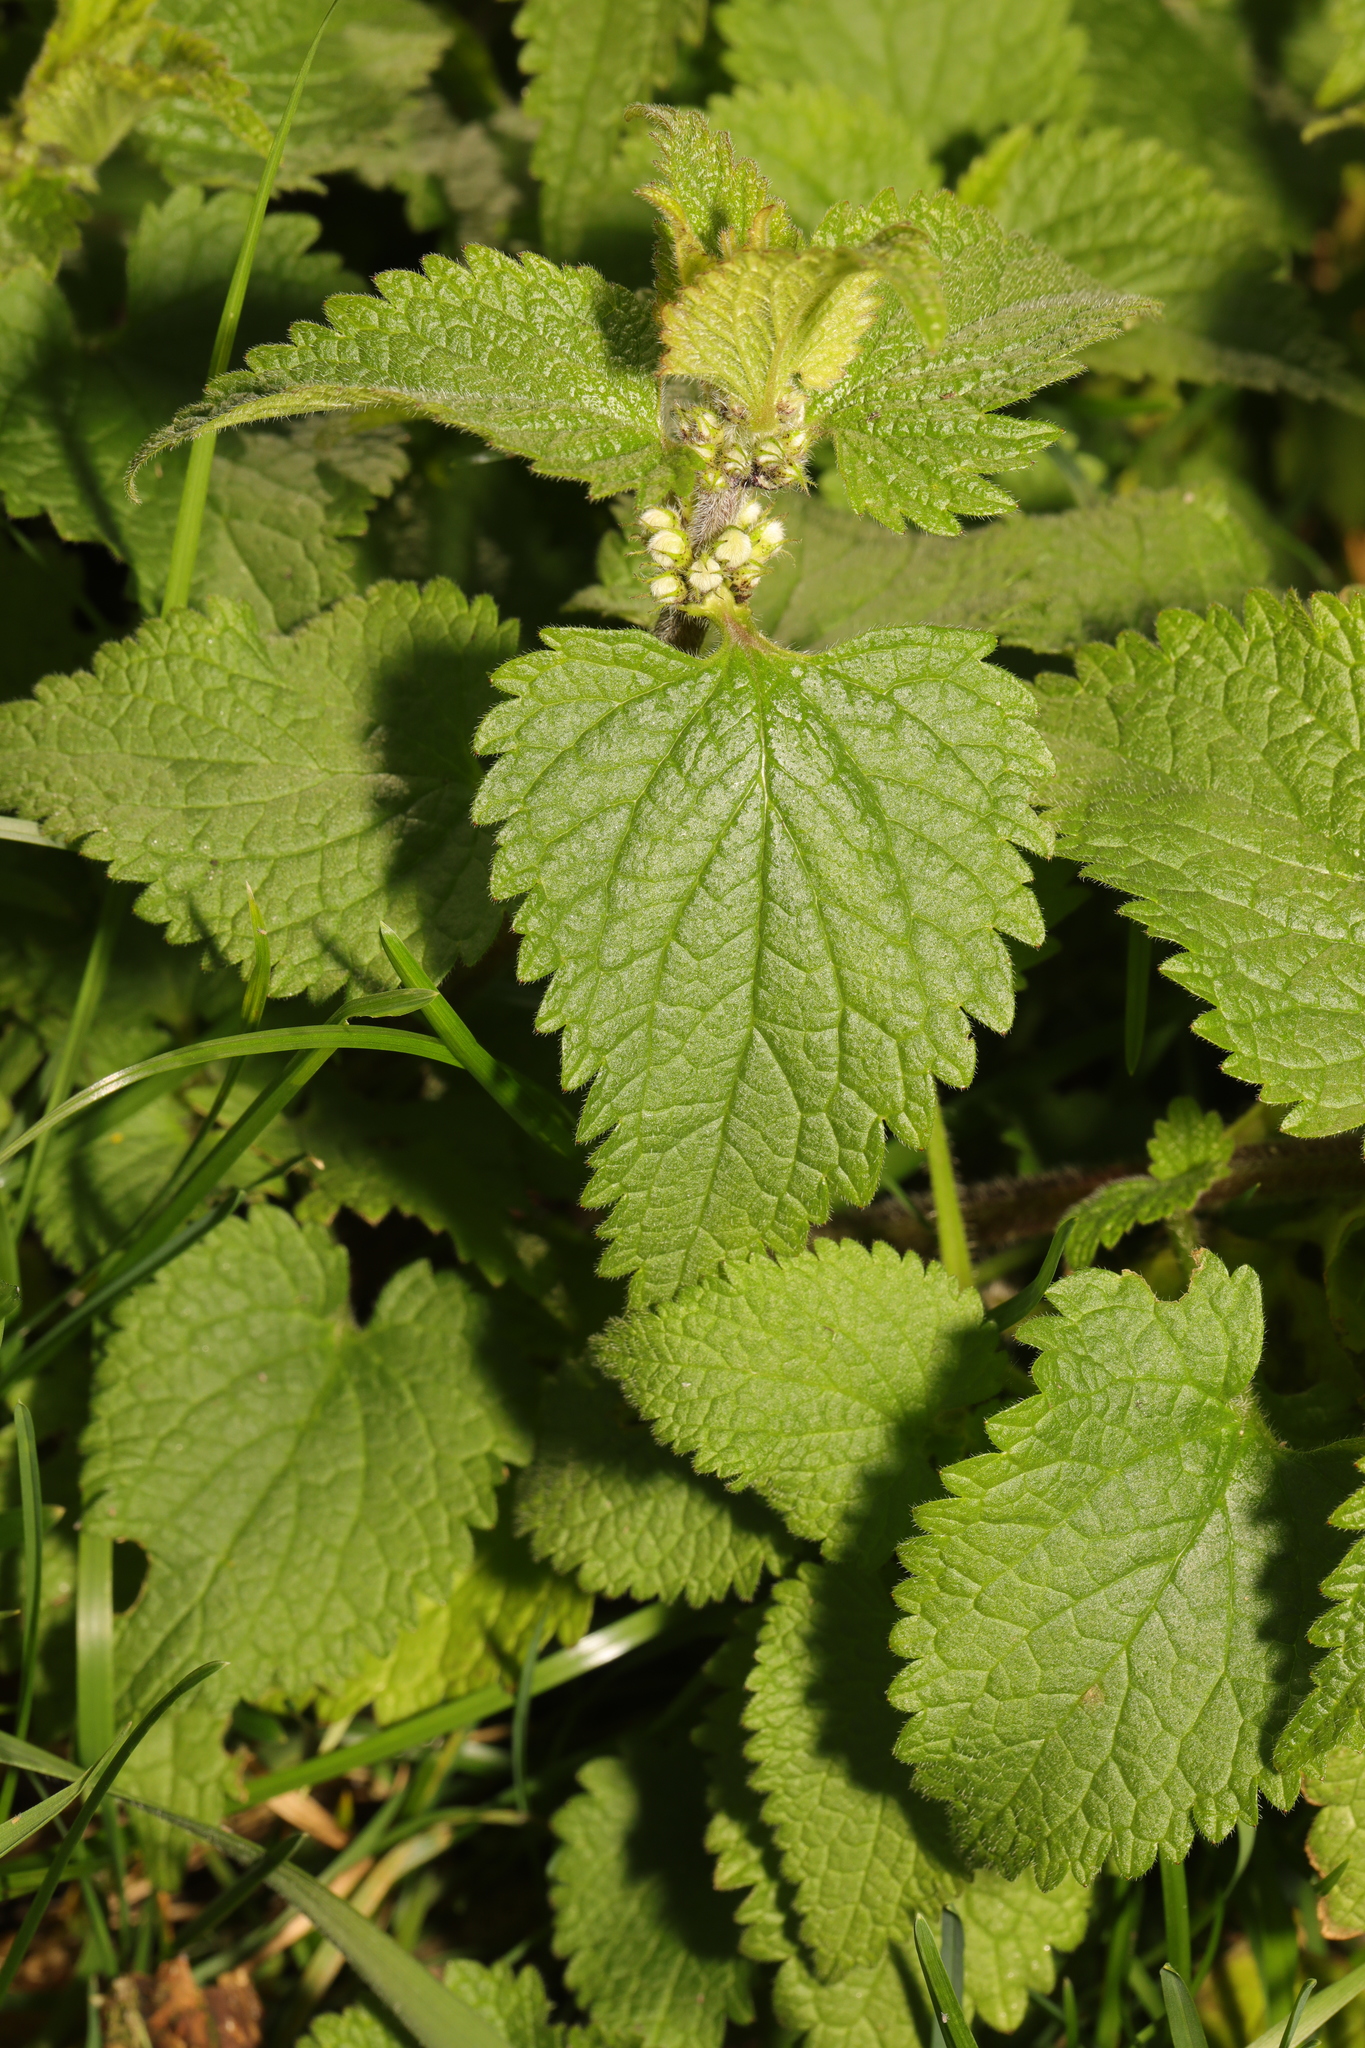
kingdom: Plantae
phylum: Tracheophyta
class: Magnoliopsida
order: Lamiales
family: Lamiaceae
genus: Lamium
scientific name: Lamium album
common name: White dead-nettle
